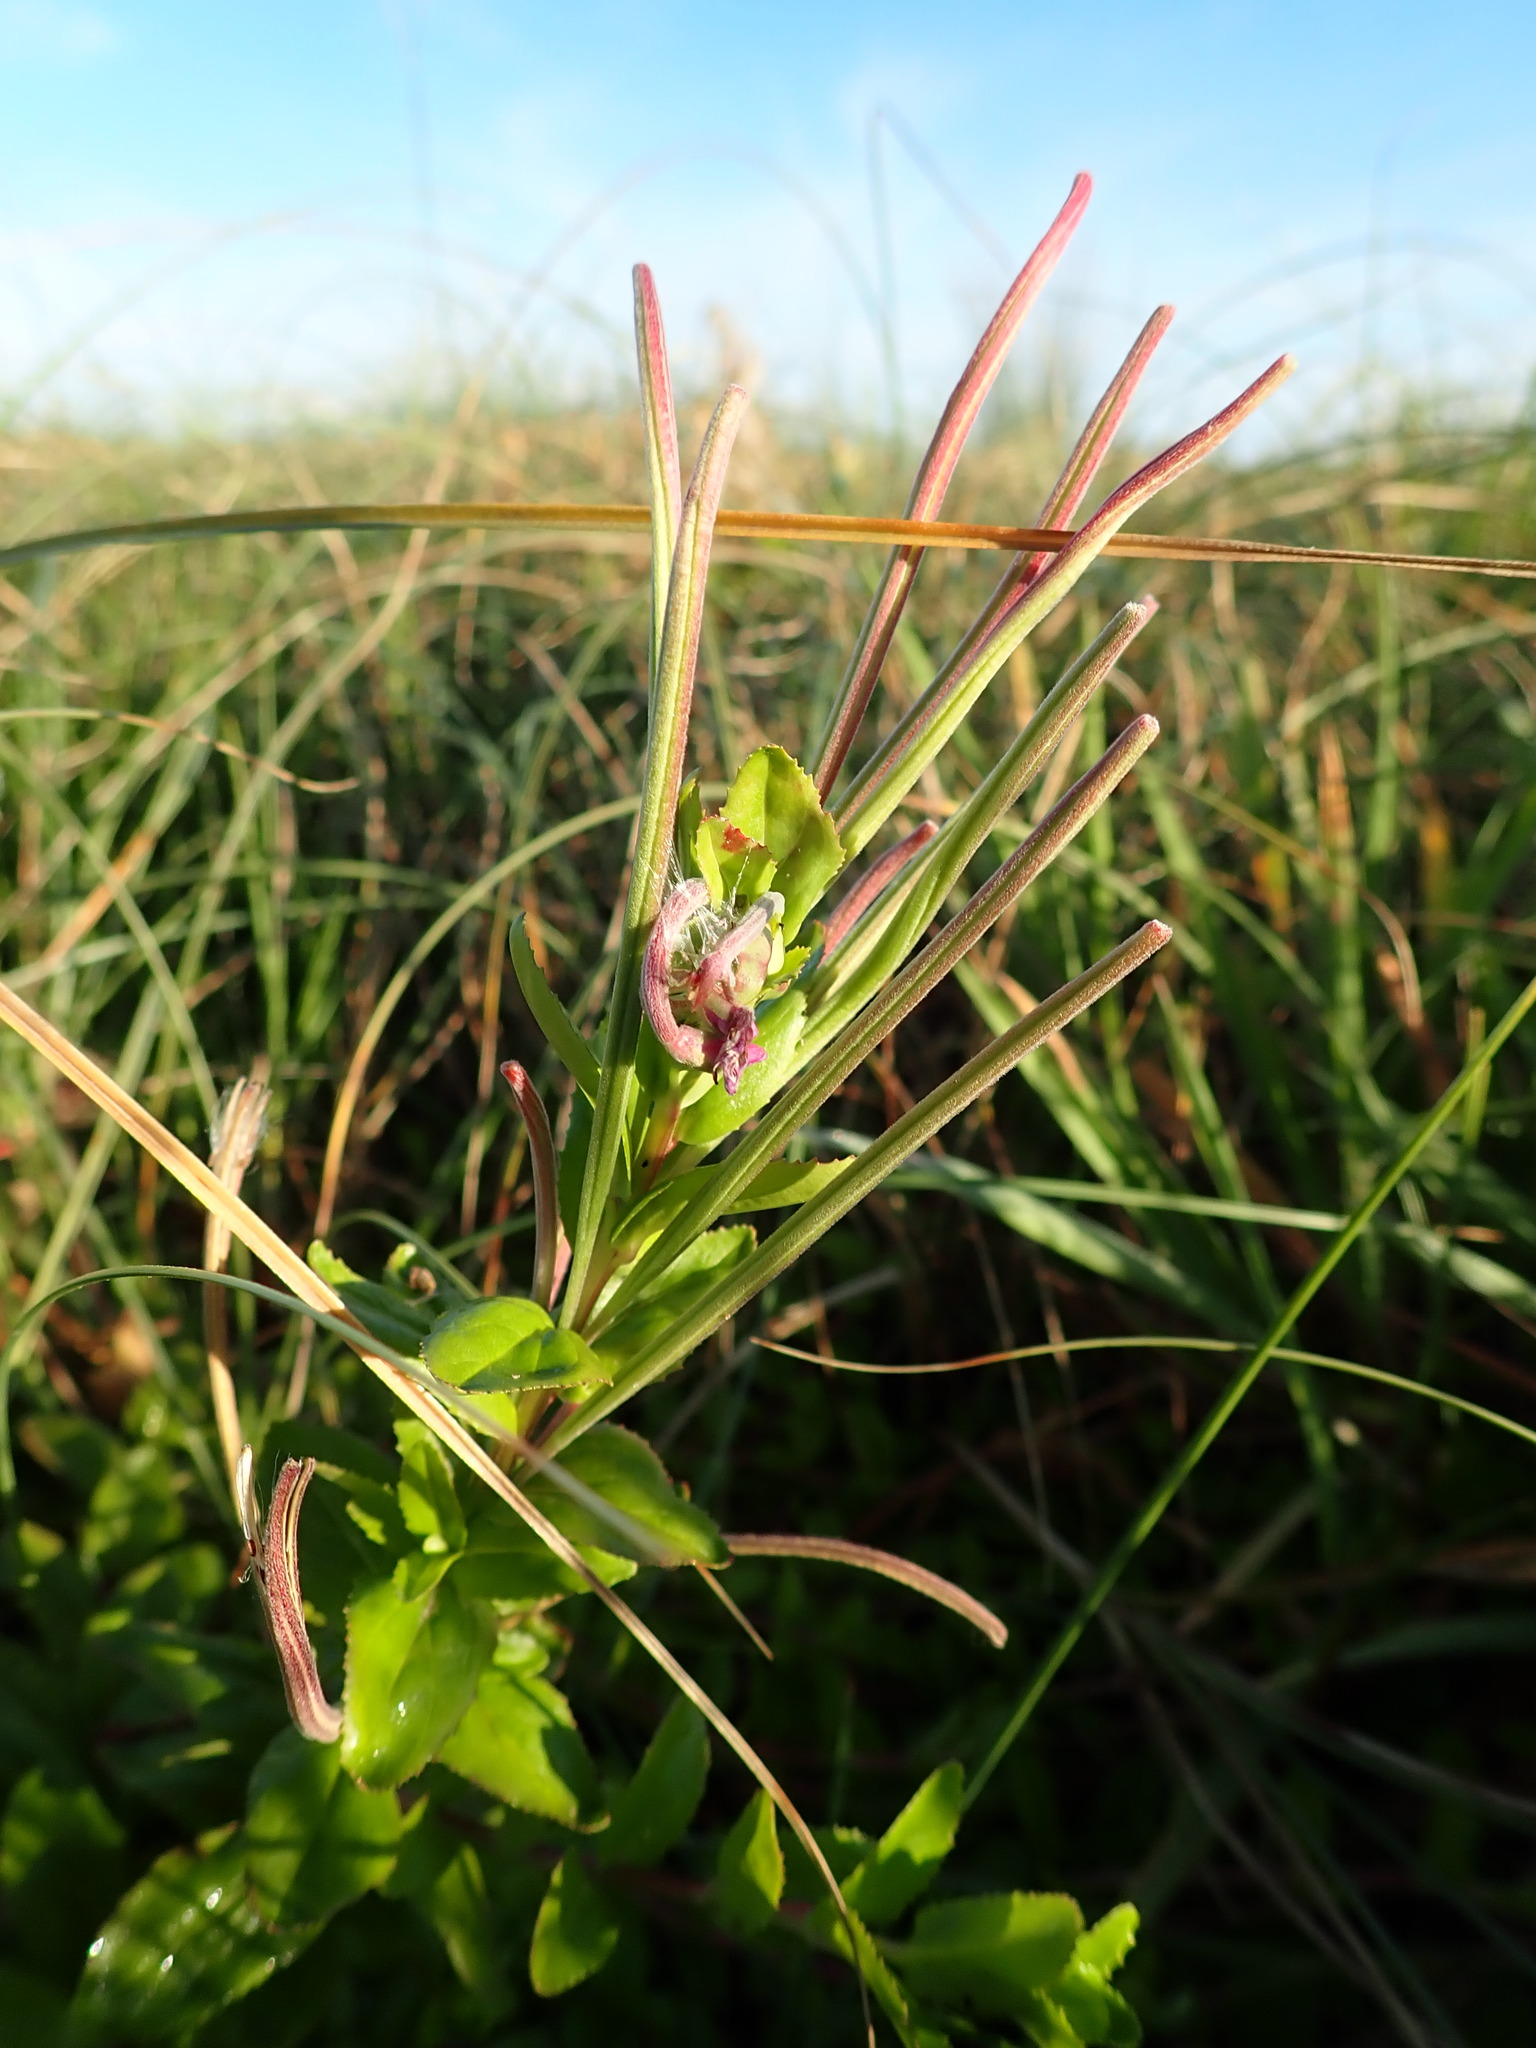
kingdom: Plantae
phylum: Tracheophyta
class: Magnoliopsida
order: Myrtales
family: Onagraceae
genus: Epilobium
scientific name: Epilobium billardiereanum
